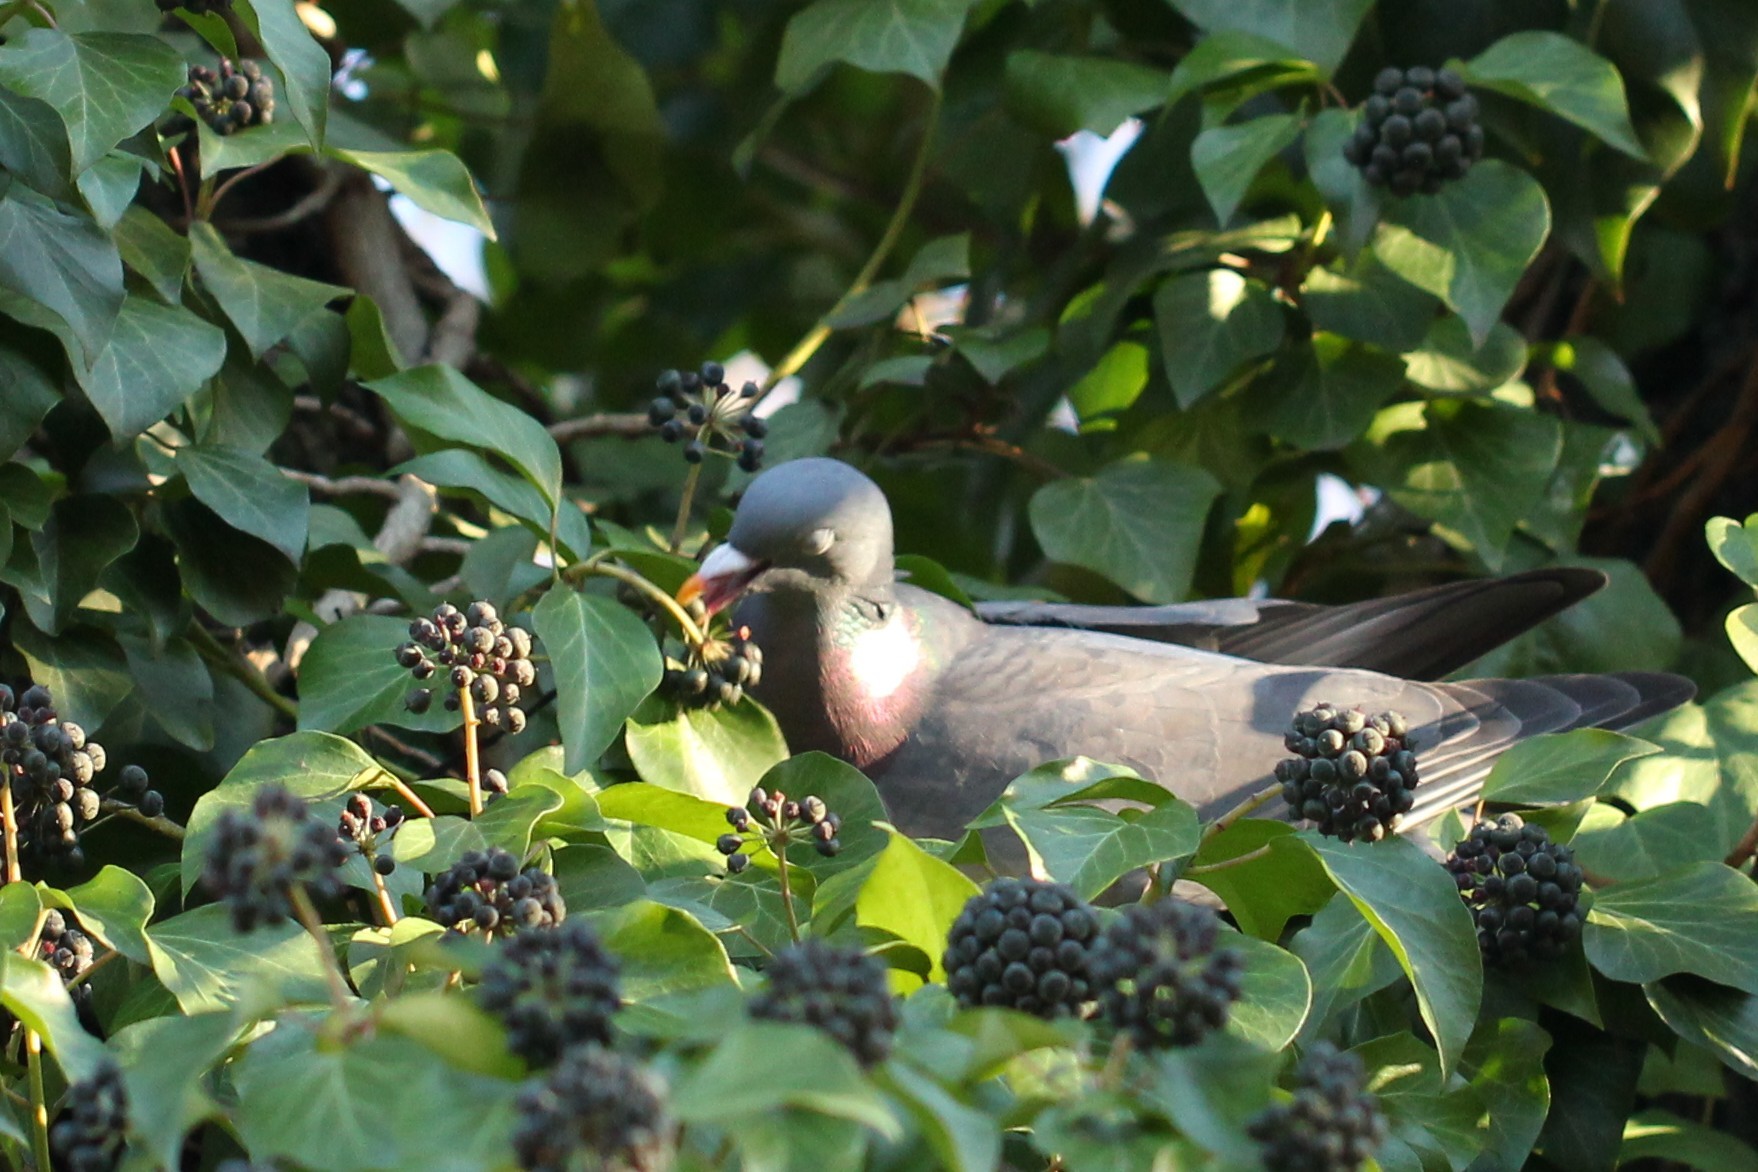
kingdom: Animalia
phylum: Chordata
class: Aves
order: Columbiformes
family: Columbidae
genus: Columba
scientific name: Columba palumbus
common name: Common wood pigeon
